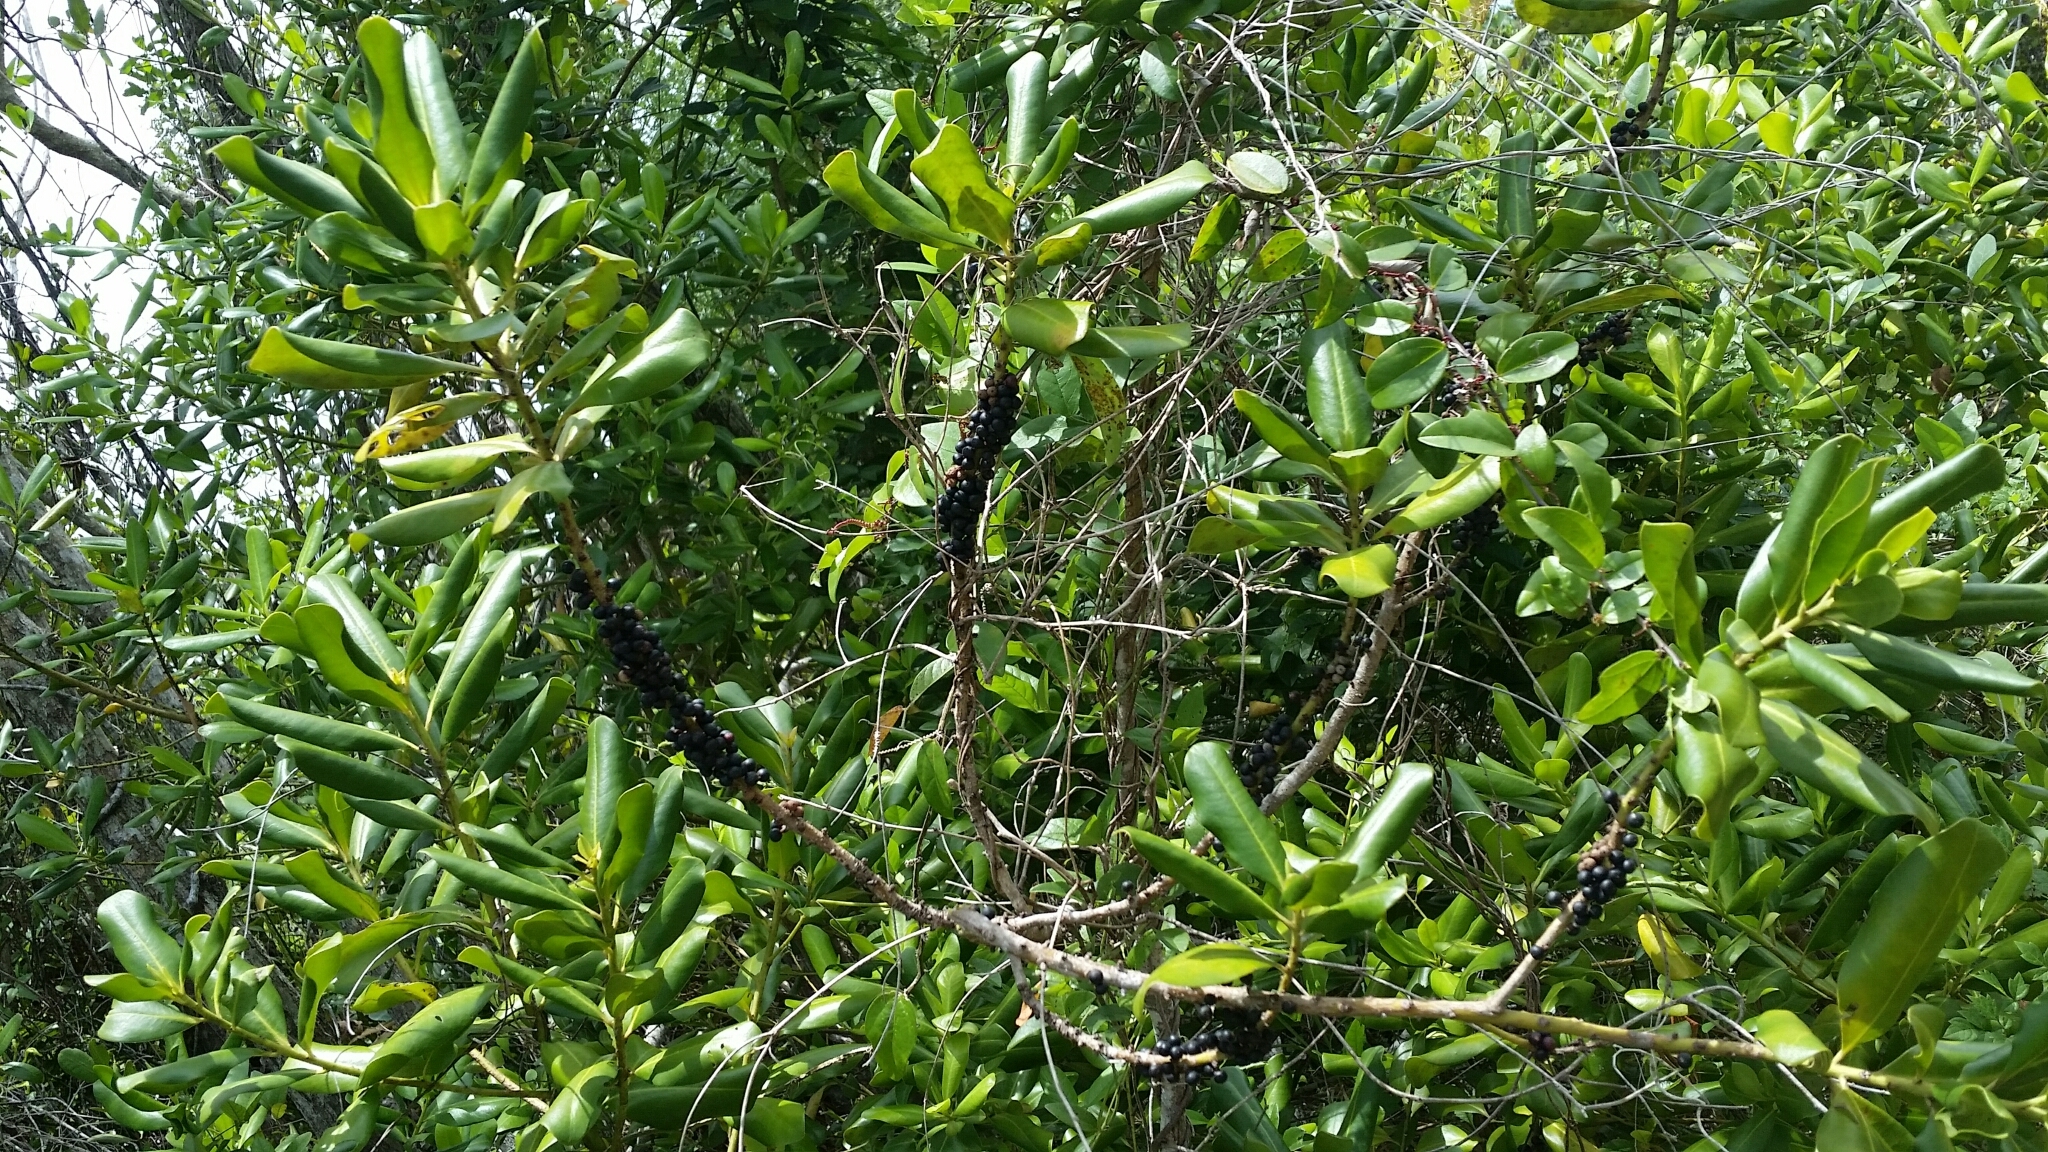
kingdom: Plantae
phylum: Tracheophyta
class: Magnoliopsida
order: Ericales
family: Primulaceae
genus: Myrsine
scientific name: Myrsine floridana
